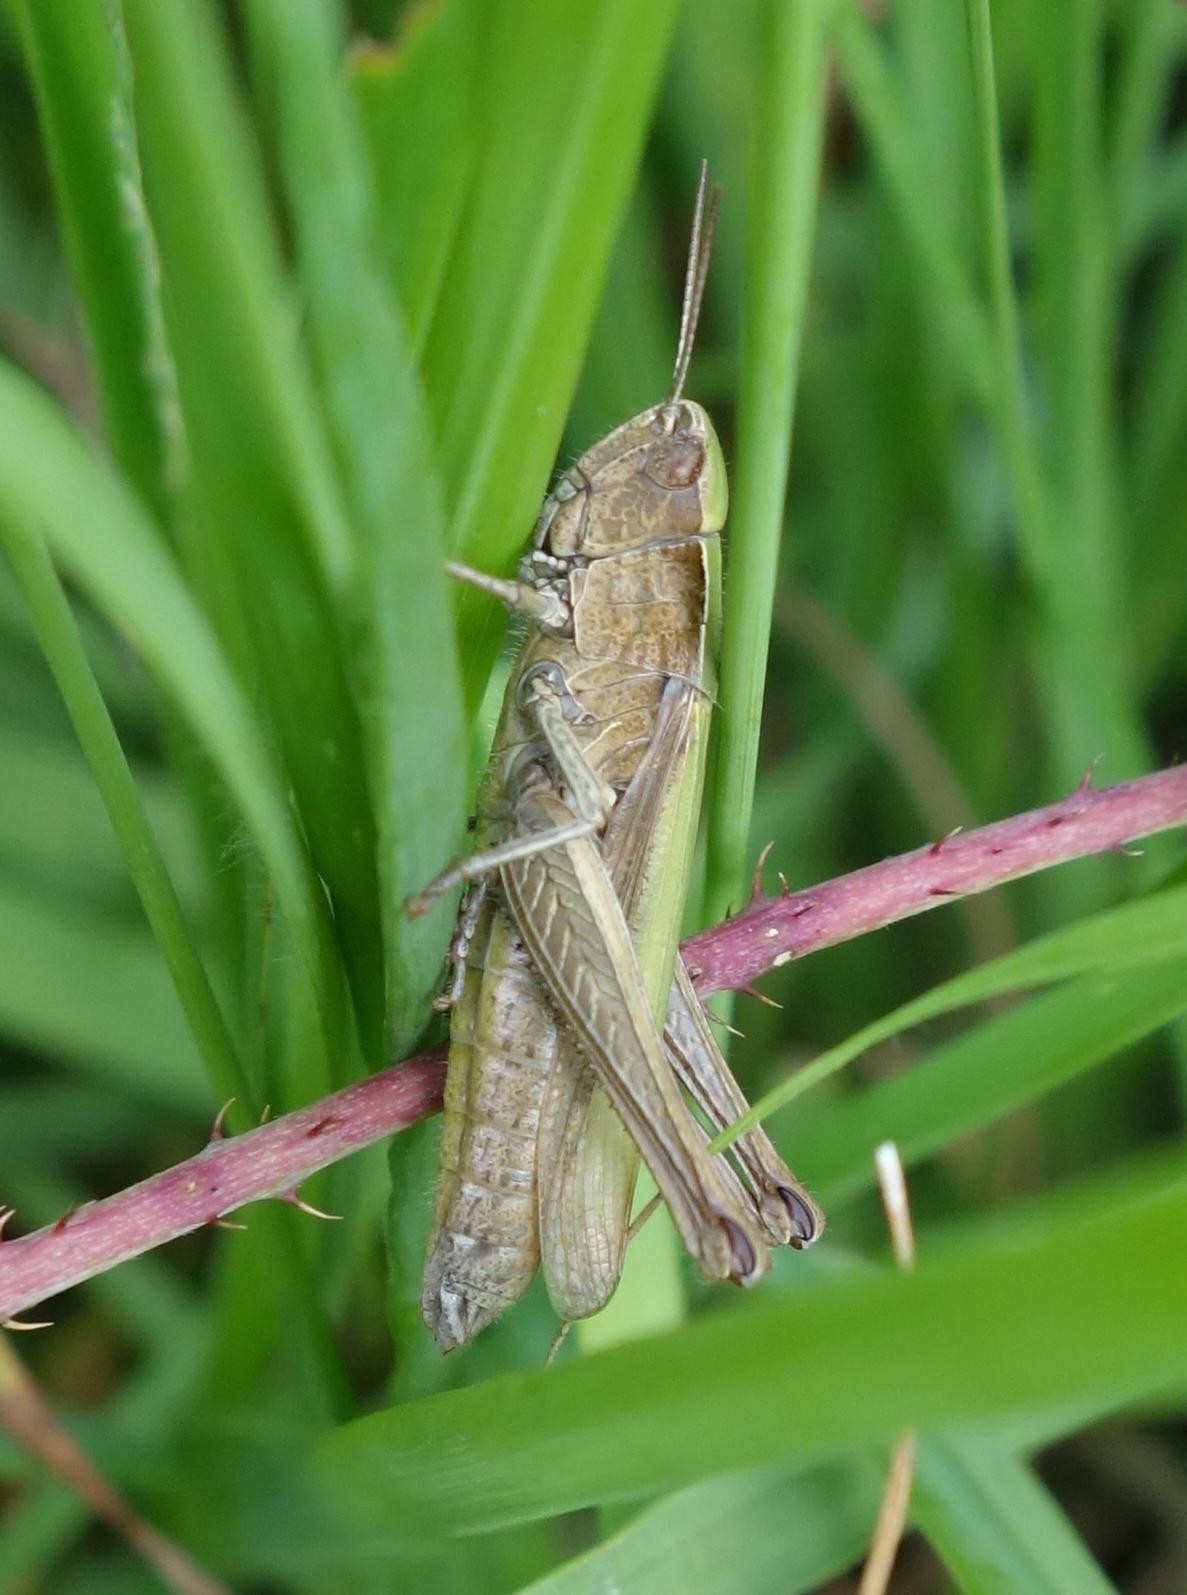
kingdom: Animalia
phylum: Arthropoda
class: Insecta
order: Orthoptera
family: Acrididae
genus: Chorthippus
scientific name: Chorthippus dorsatus
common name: Steppe grasshopper
